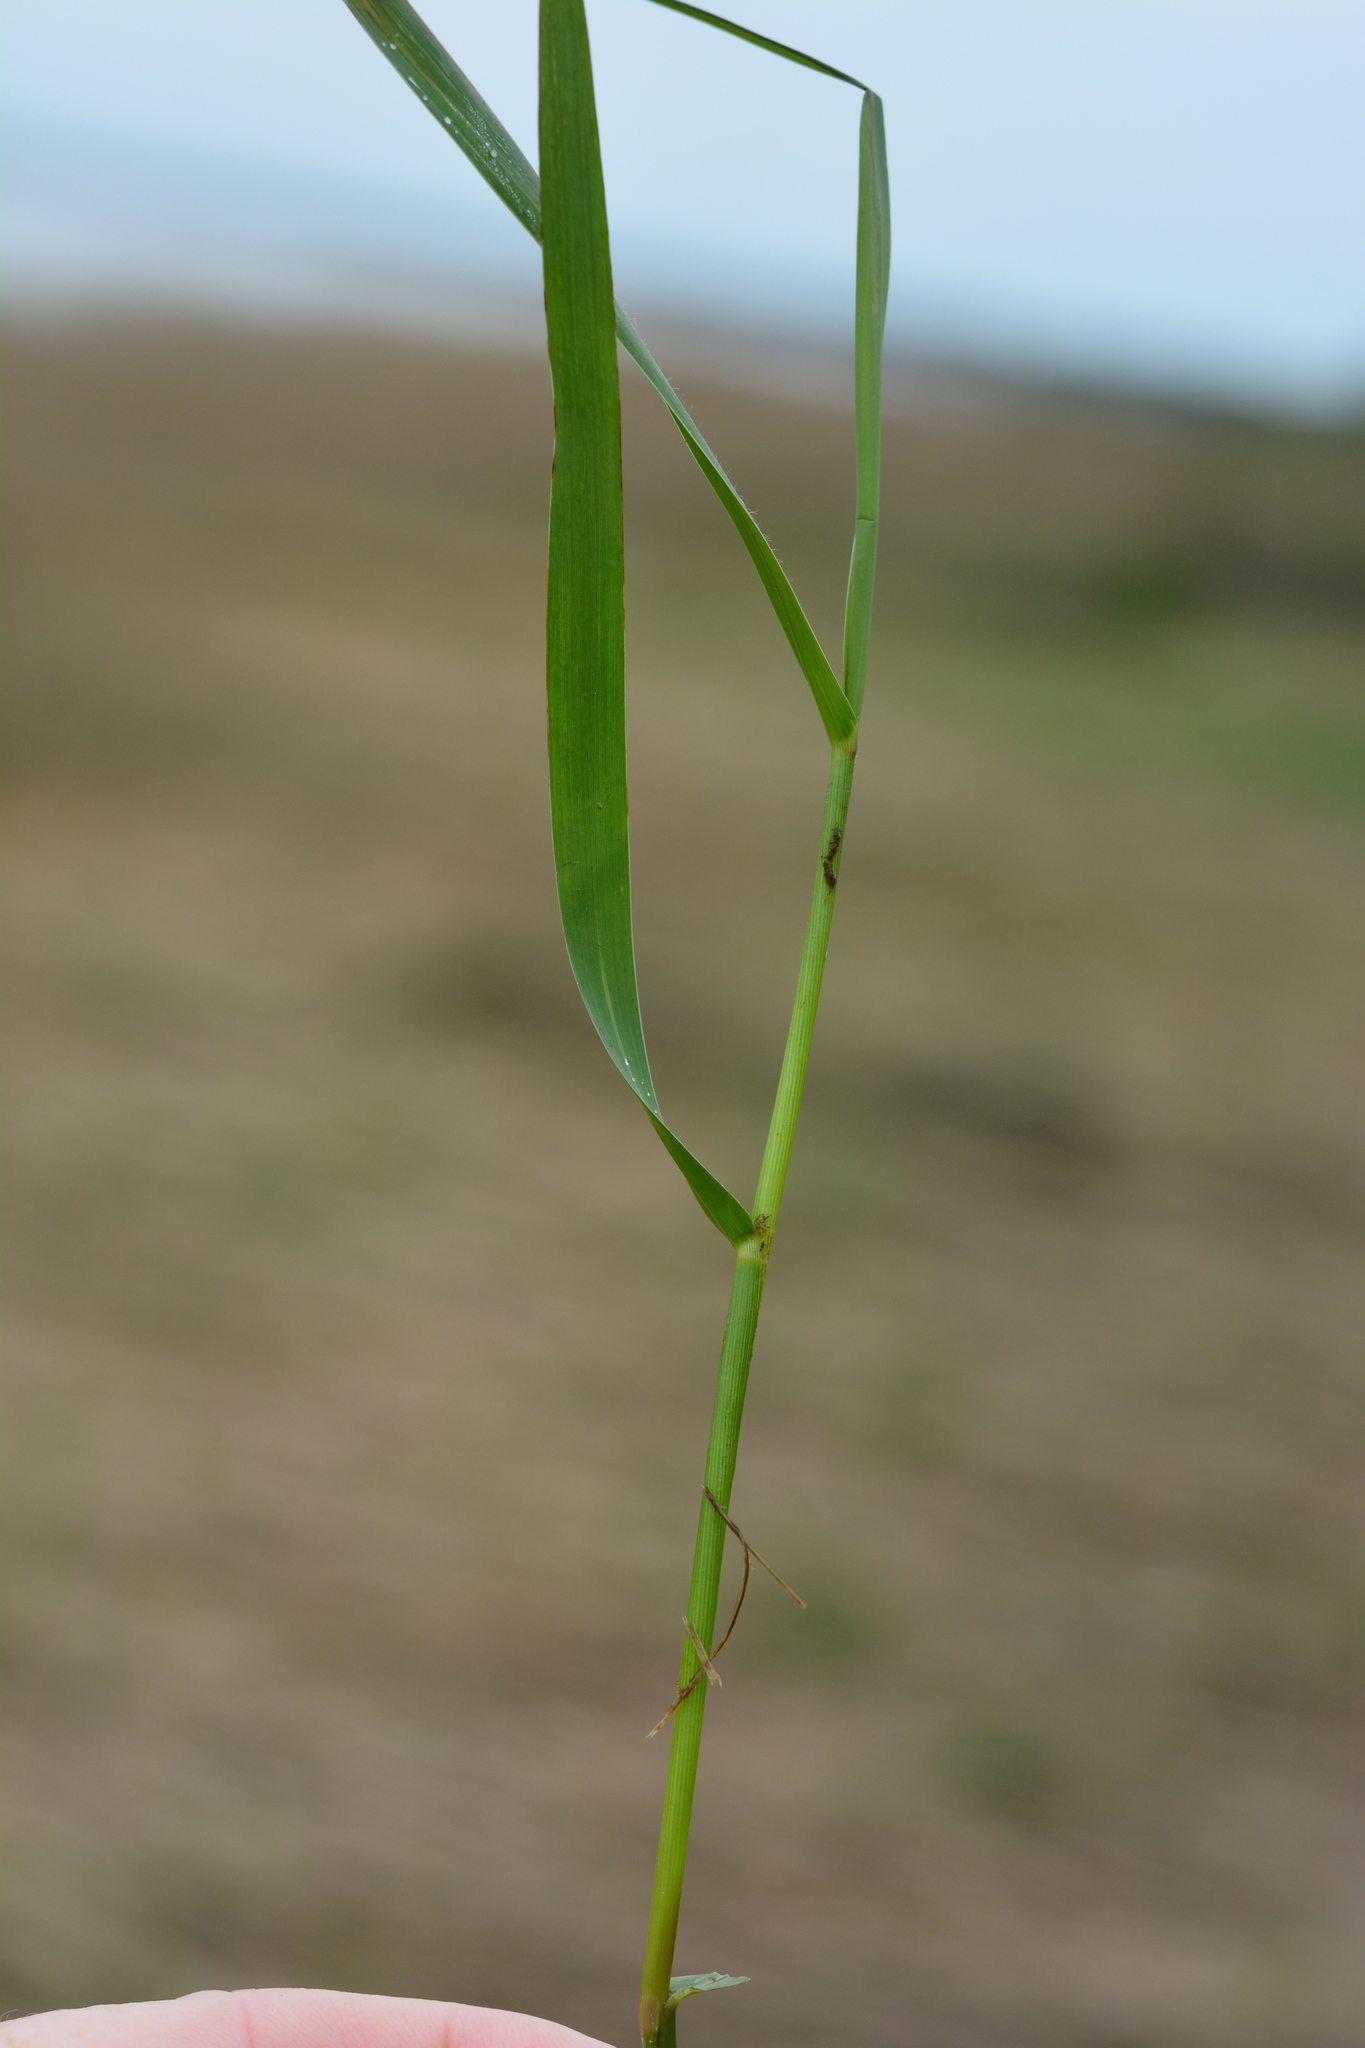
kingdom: Plantae
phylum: Tracheophyta
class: Liliopsida
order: Poales
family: Poaceae
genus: Sporobolus
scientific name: Sporobolus alterniflorus
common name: Atlantic cordgrass
